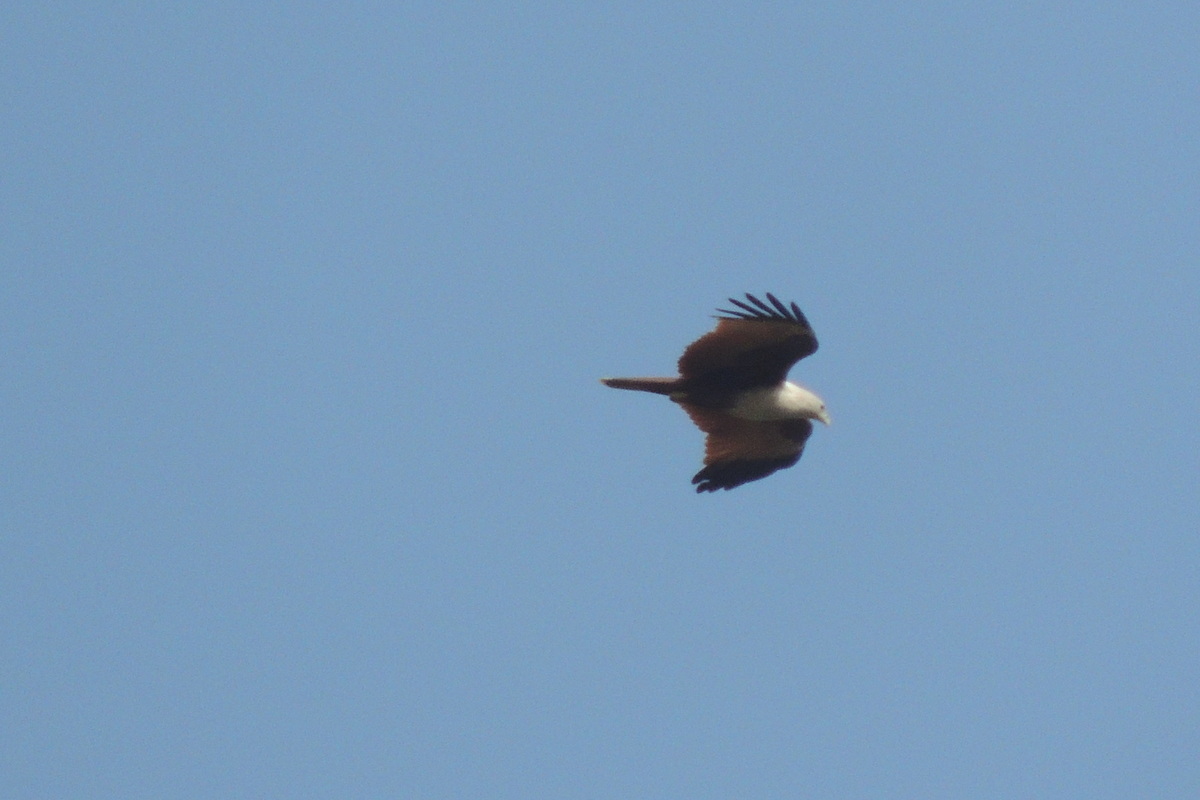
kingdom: Animalia
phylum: Chordata
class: Aves
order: Accipitriformes
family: Accipitridae
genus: Haliastur
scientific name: Haliastur indus
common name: Brahminy kite
